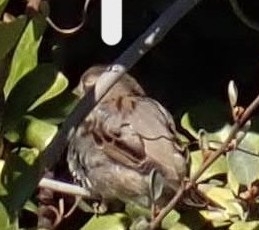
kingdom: Animalia
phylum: Chordata
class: Aves
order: Passeriformes
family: Passeridae
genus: Passer
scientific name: Passer domesticus
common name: House sparrow
